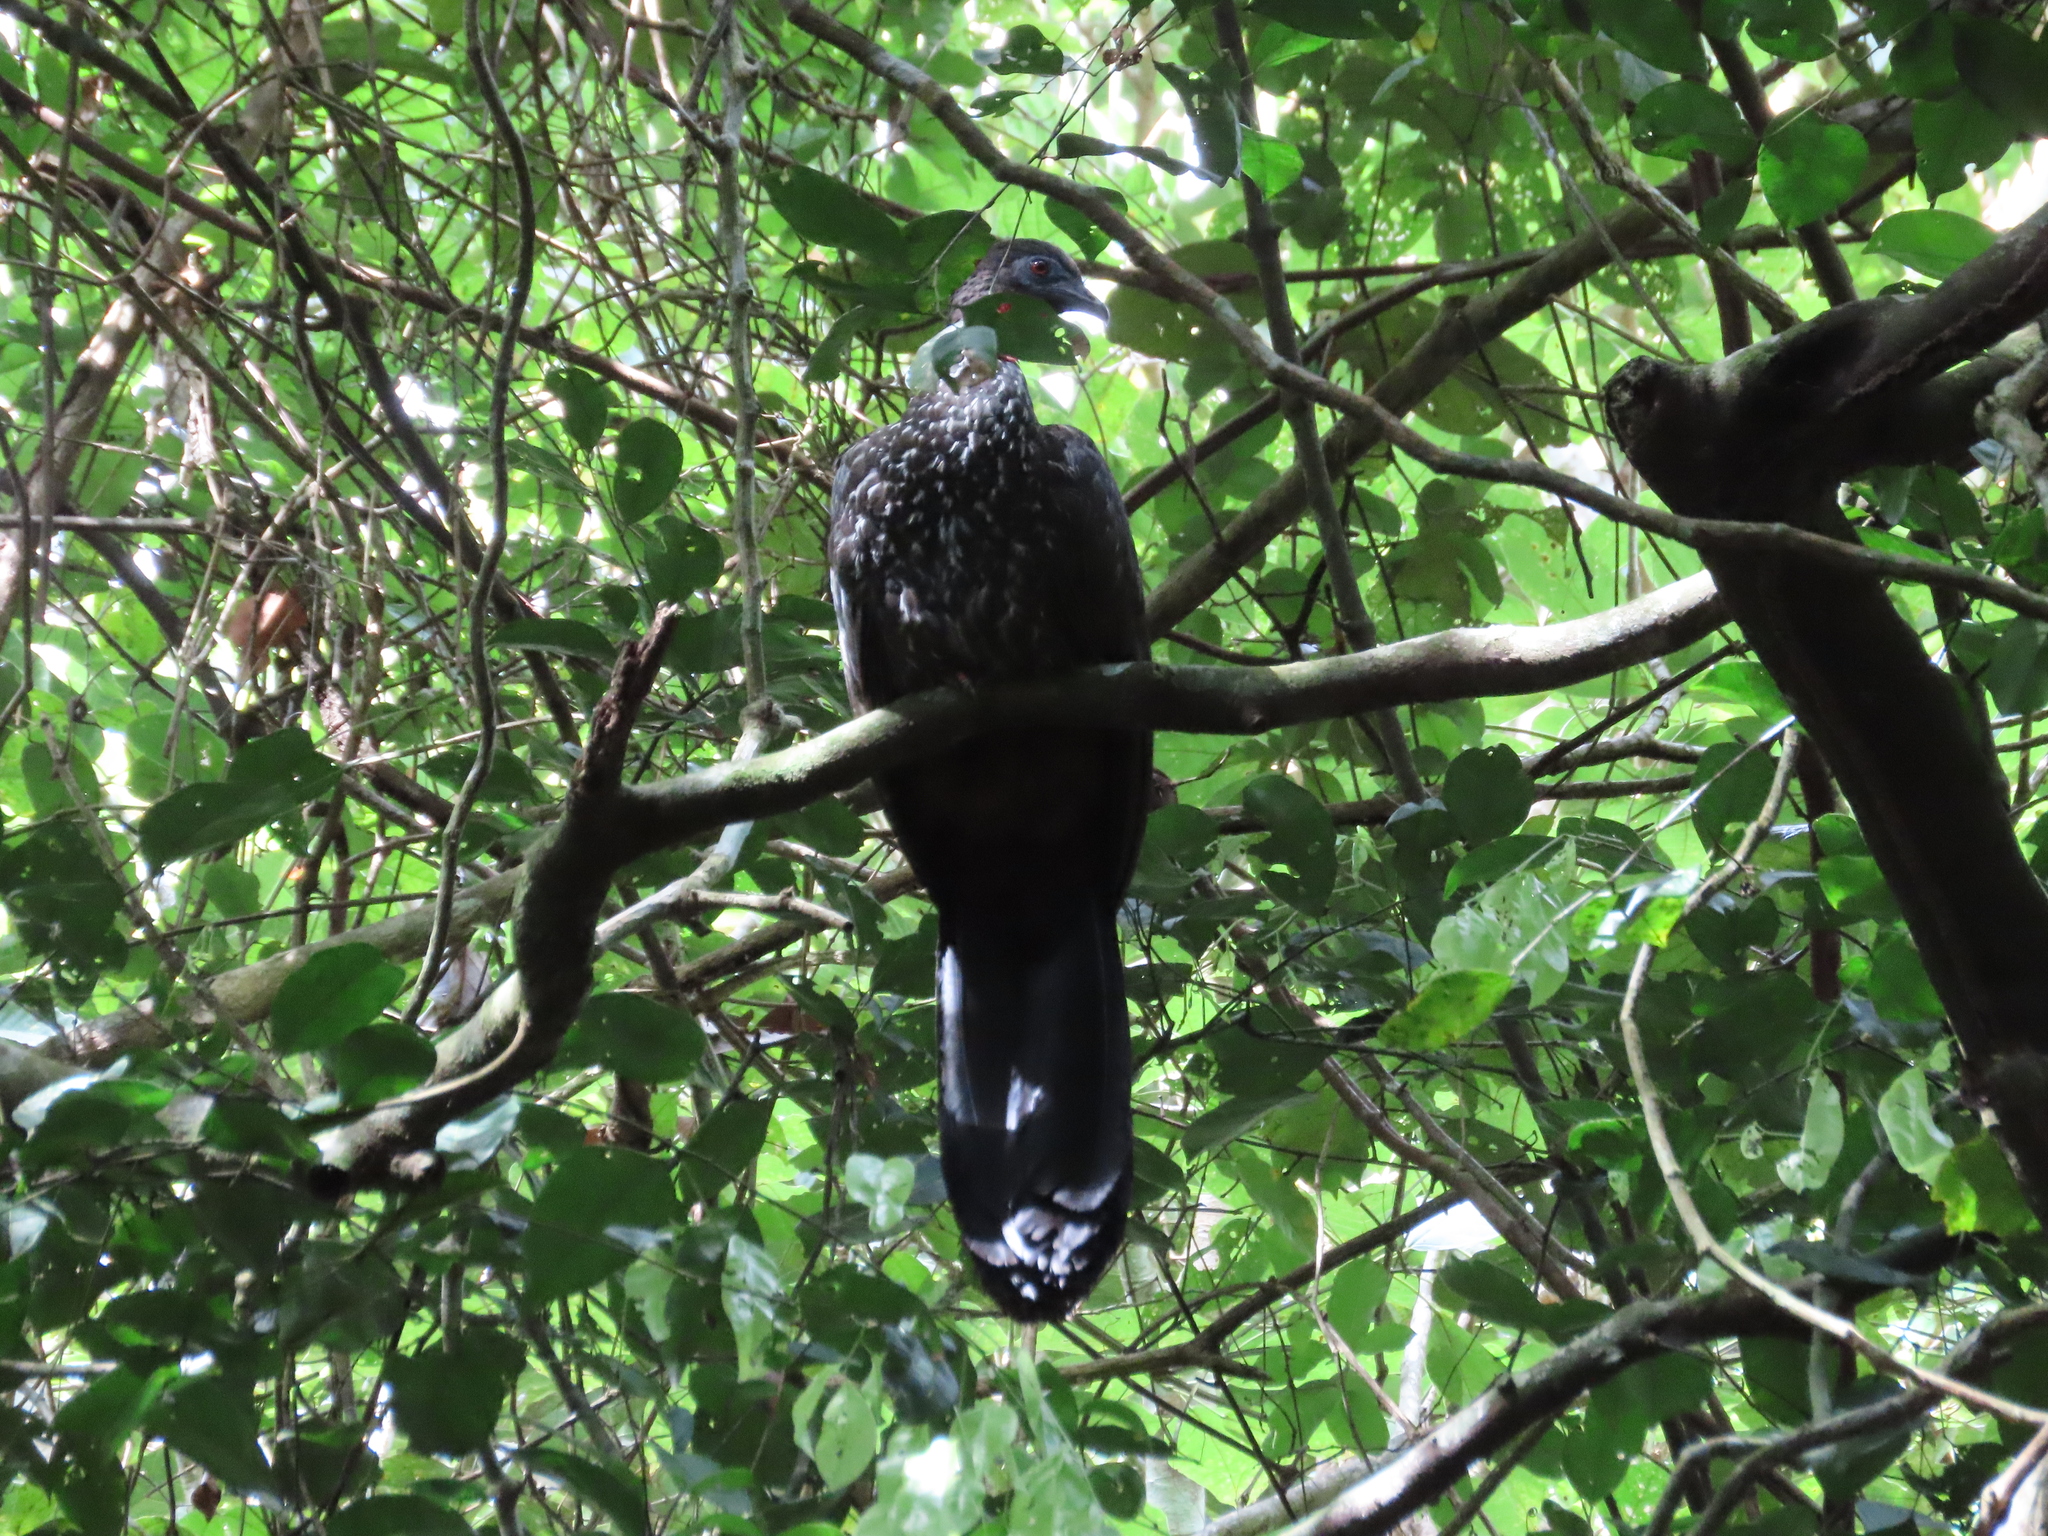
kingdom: Animalia
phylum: Chordata
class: Aves
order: Galliformes
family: Cracidae
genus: Penelope
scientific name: Penelope purpurascens
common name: Crested guan
